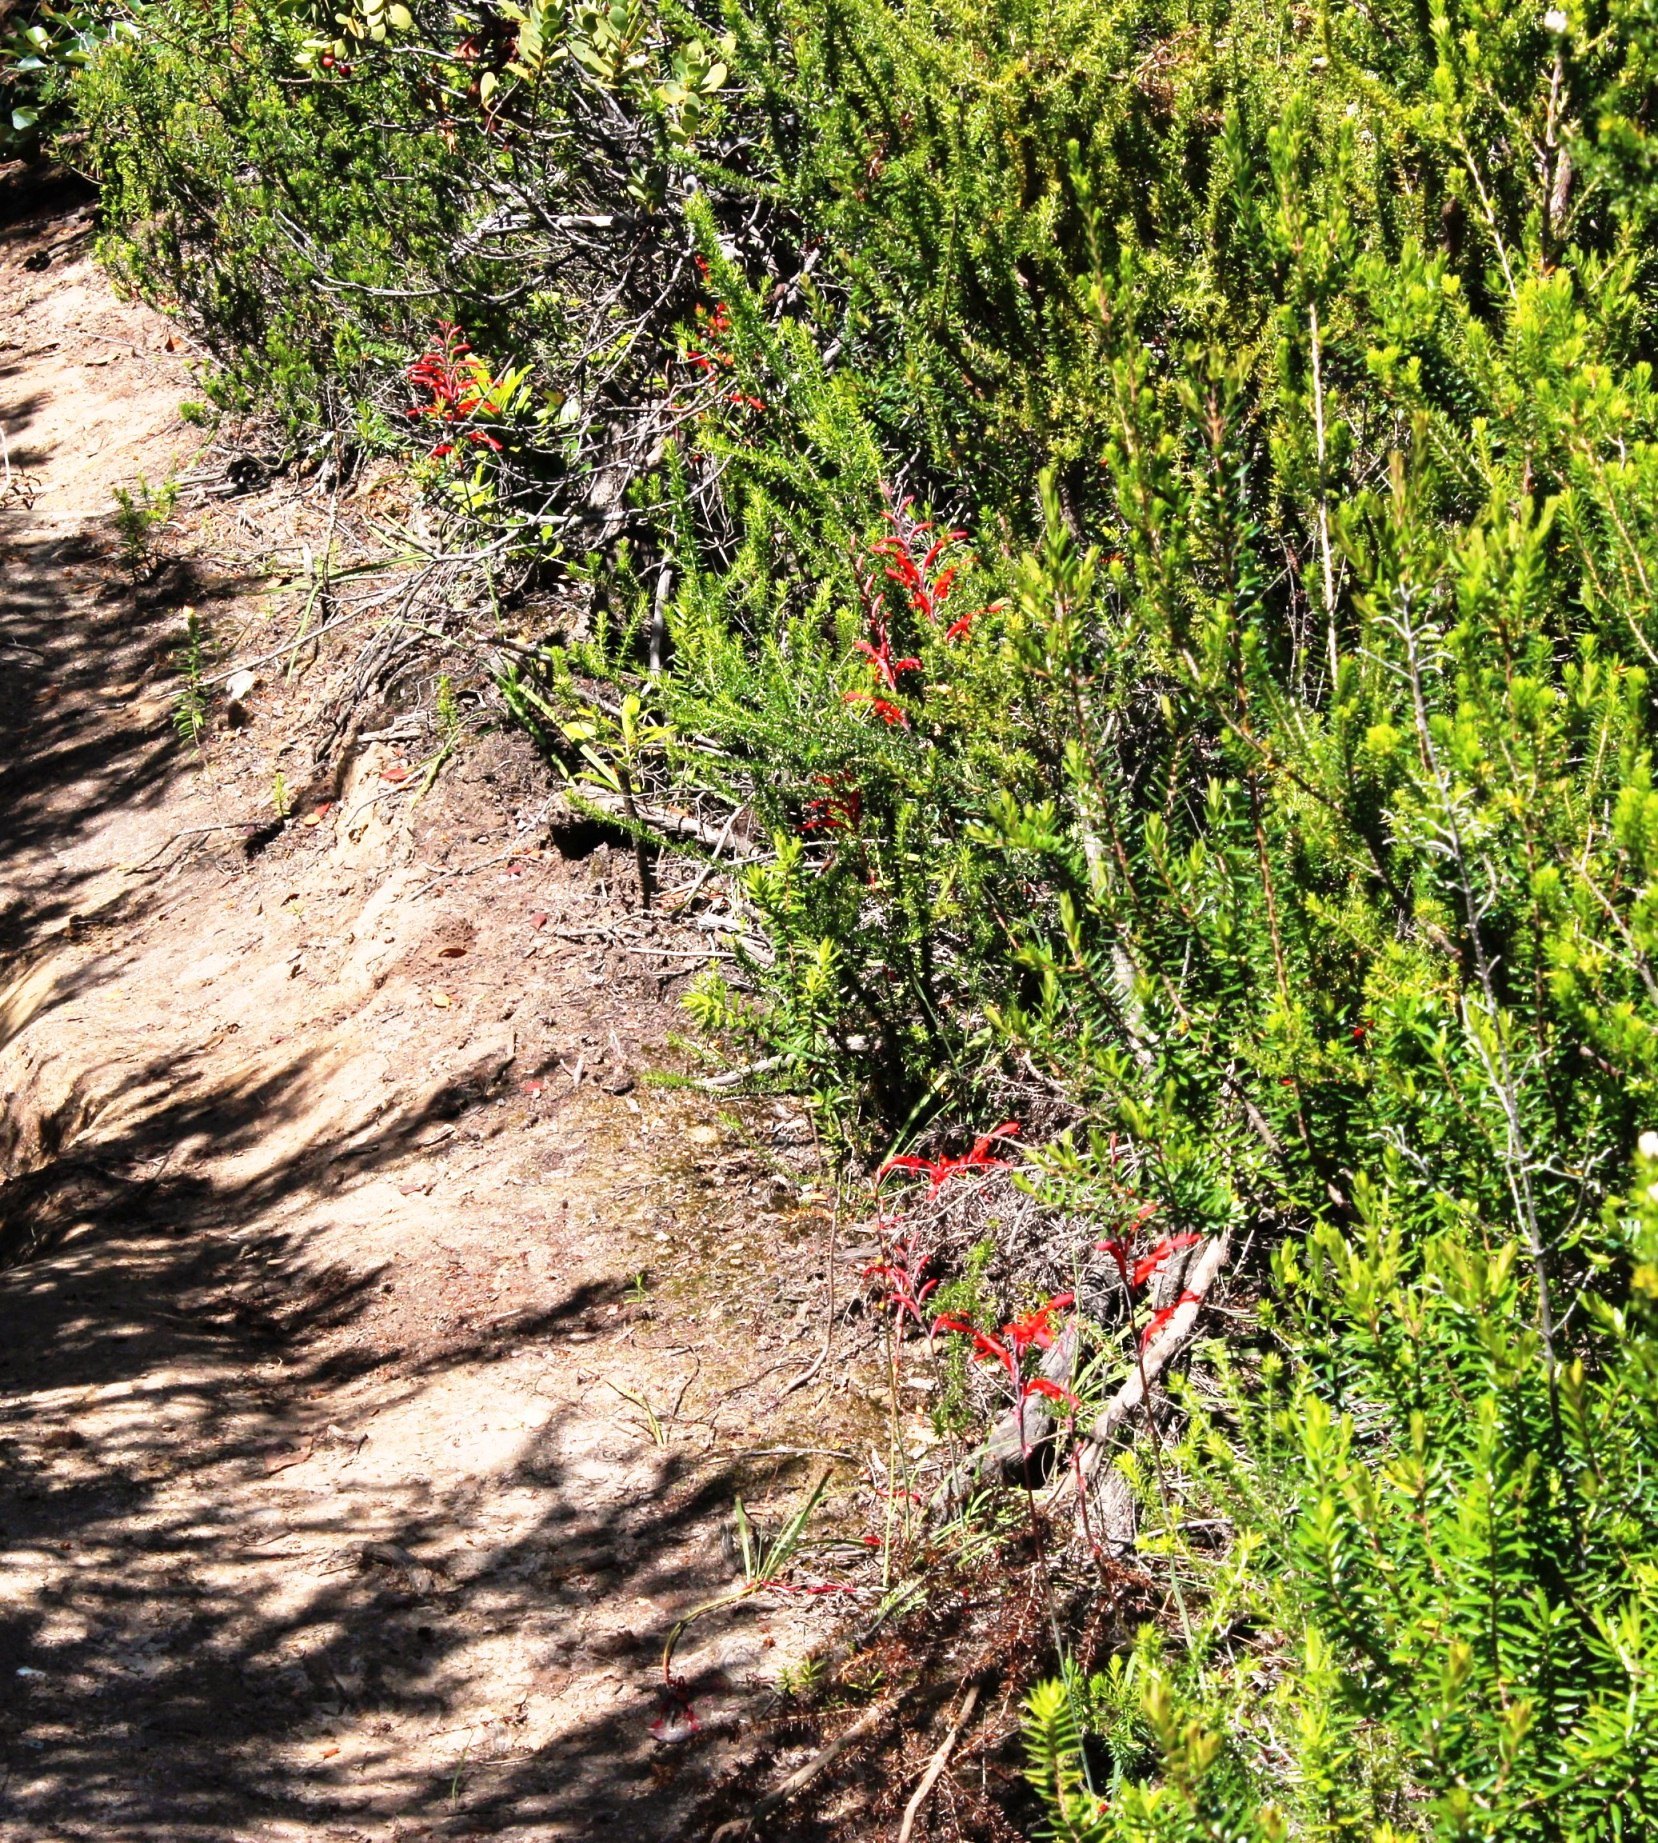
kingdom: Plantae
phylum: Tracheophyta
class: Liliopsida
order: Asparagales
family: Iridaceae
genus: Tritoniopsis
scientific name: Tritoniopsis caffra
